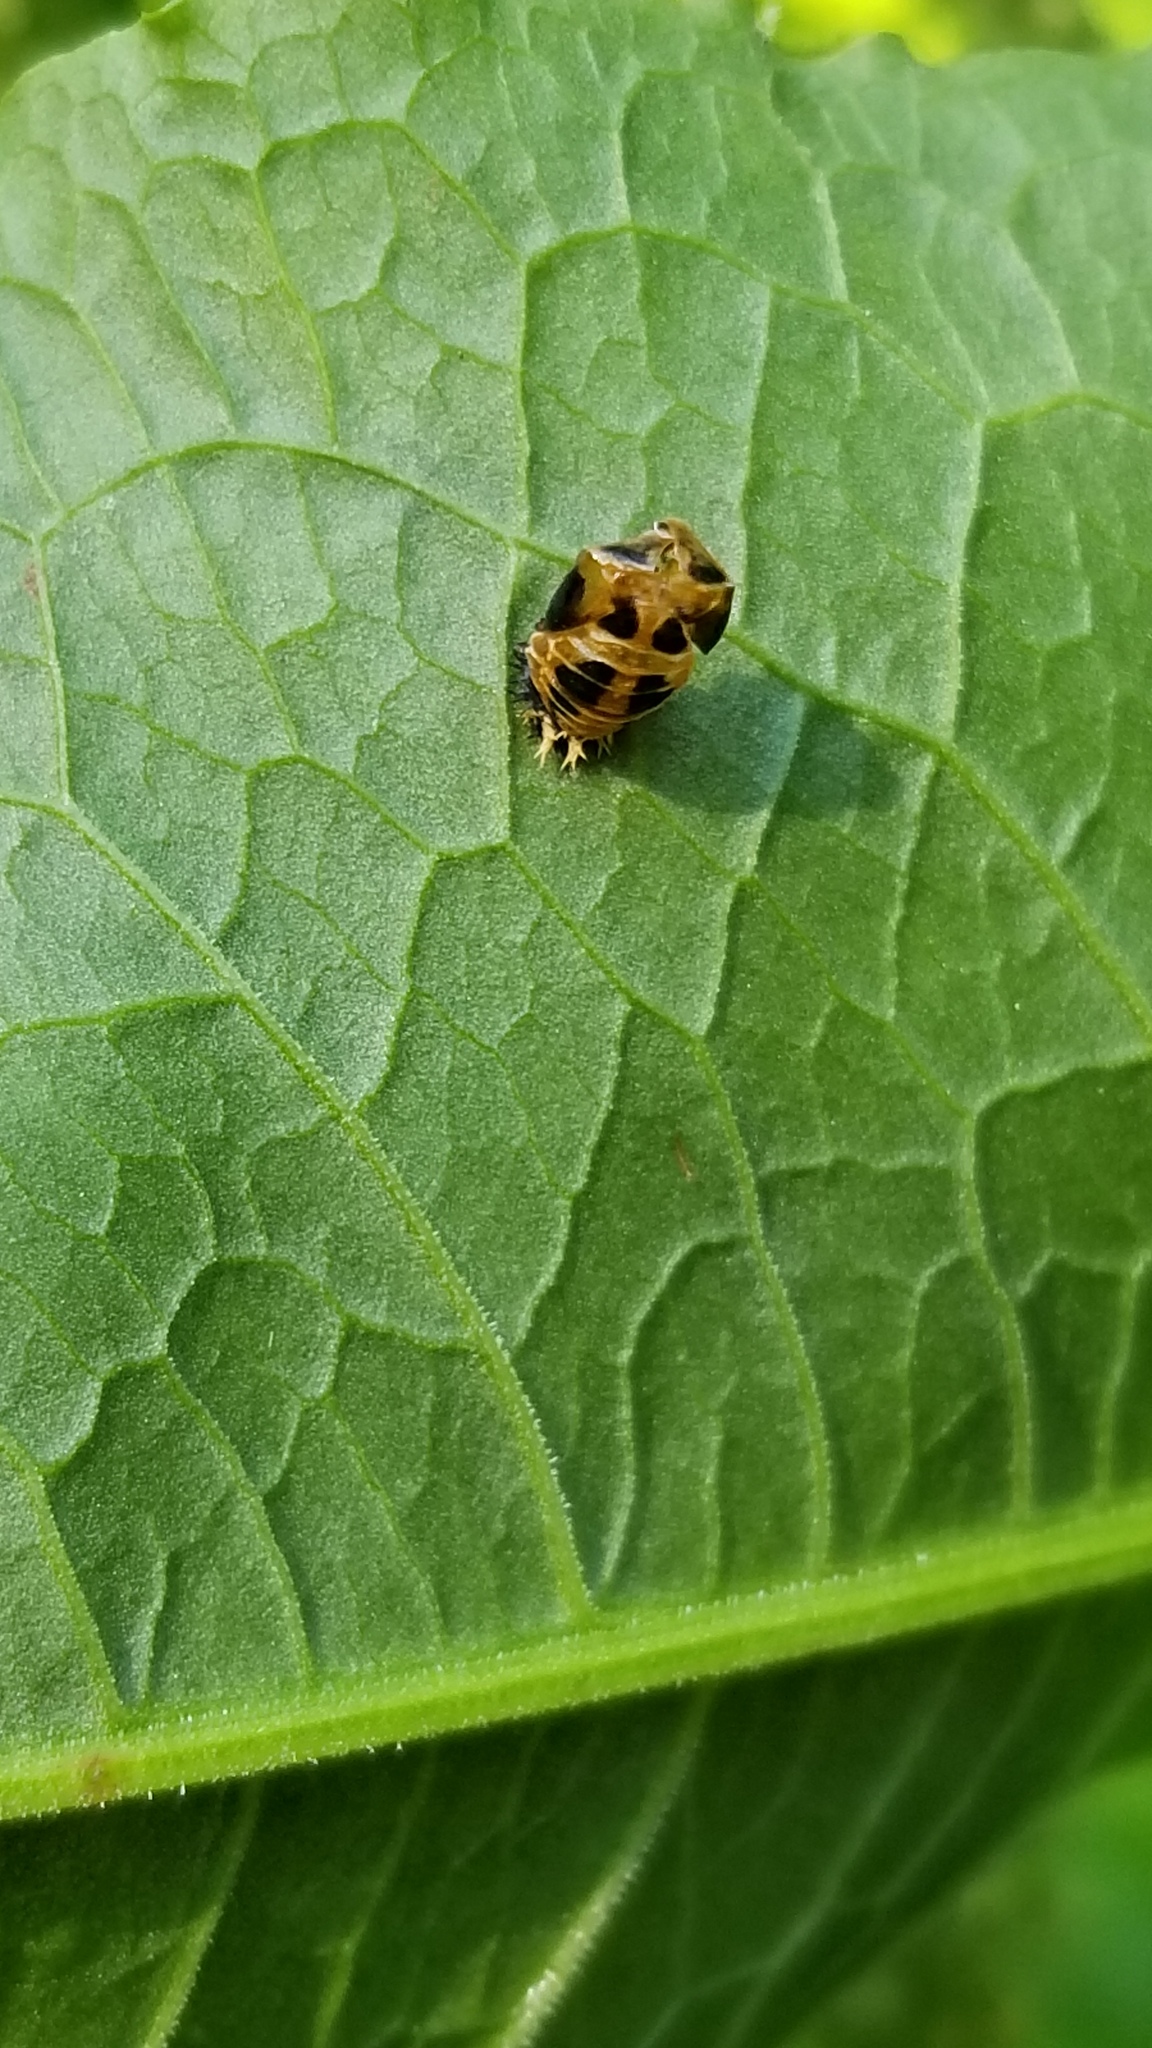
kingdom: Animalia
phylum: Arthropoda
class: Insecta
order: Coleoptera
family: Coccinellidae
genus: Harmonia
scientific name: Harmonia axyridis
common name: Harlequin ladybird
